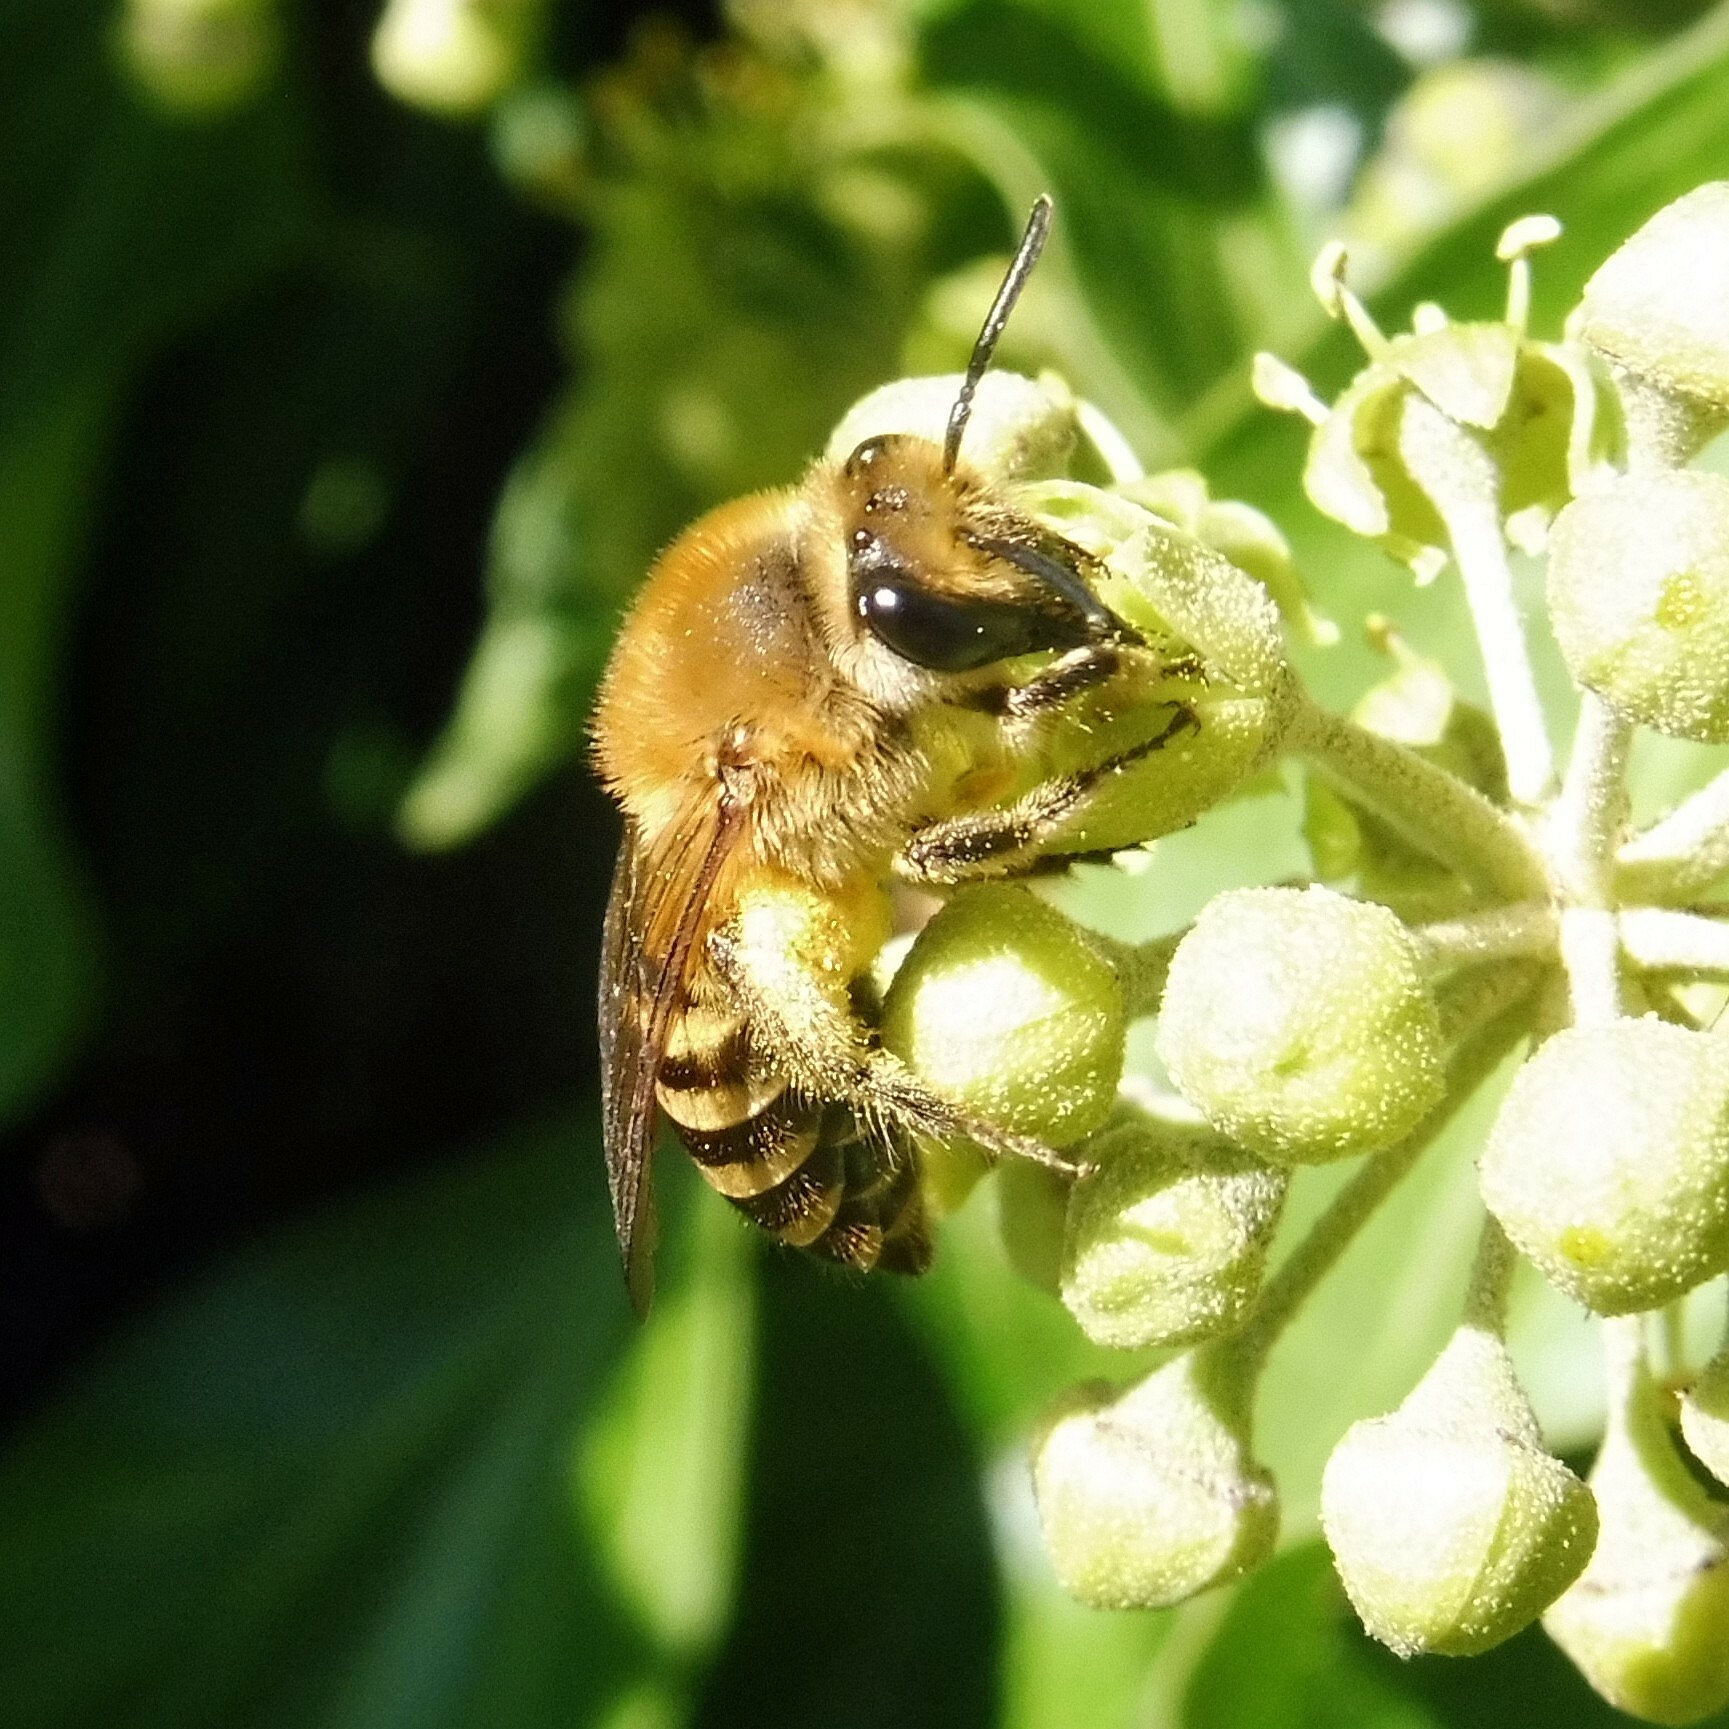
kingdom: Animalia
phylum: Arthropoda
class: Insecta
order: Hymenoptera
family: Colletidae
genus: Colletes
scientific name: Colletes hederae
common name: Ivy bee
